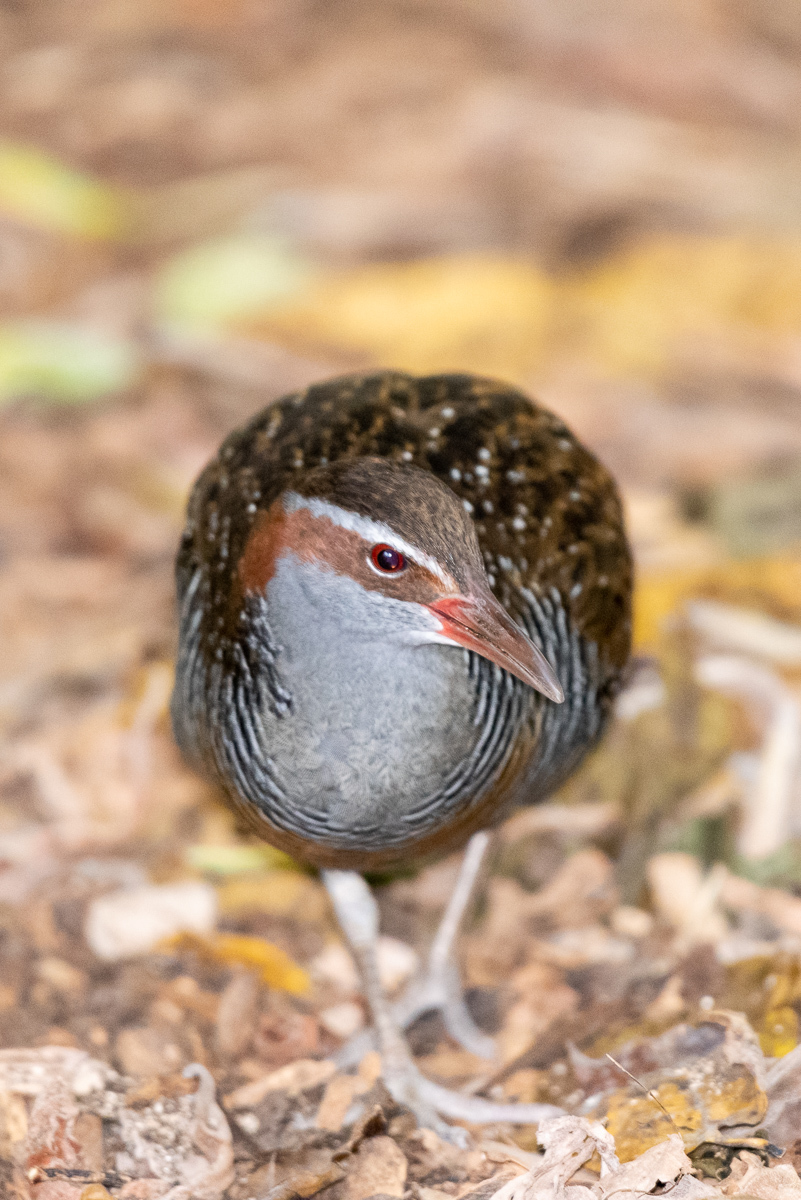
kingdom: Animalia
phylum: Chordata
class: Aves
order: Gruiformes
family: Rallidae
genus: Gallirallus
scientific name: Gallirallus philippensis
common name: Buff-banded rail
